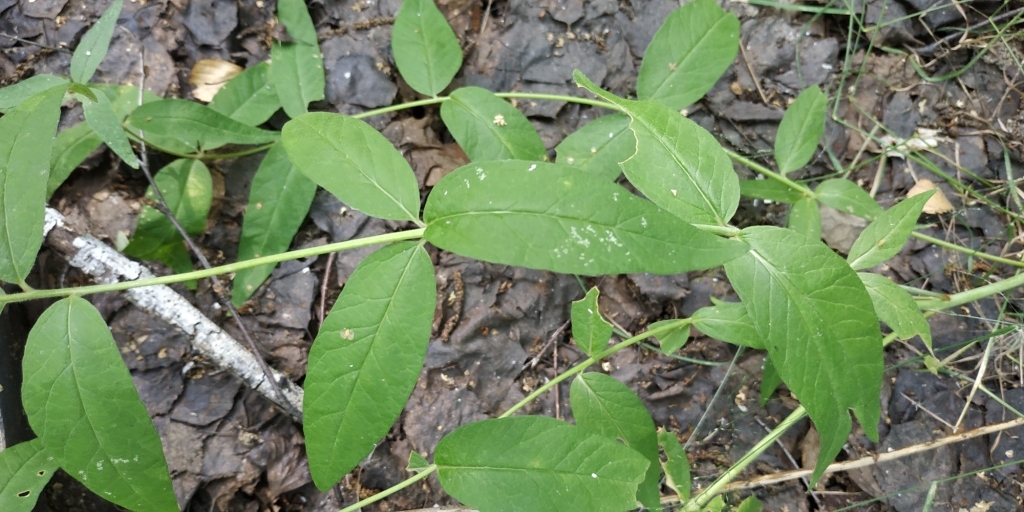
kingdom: Plantae
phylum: Tracheophyta
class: Magnoliopsida
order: Ericales
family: Primulaceae
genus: Lysimachia
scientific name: Lysimachia vulgaris
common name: Yellow loosestrife
